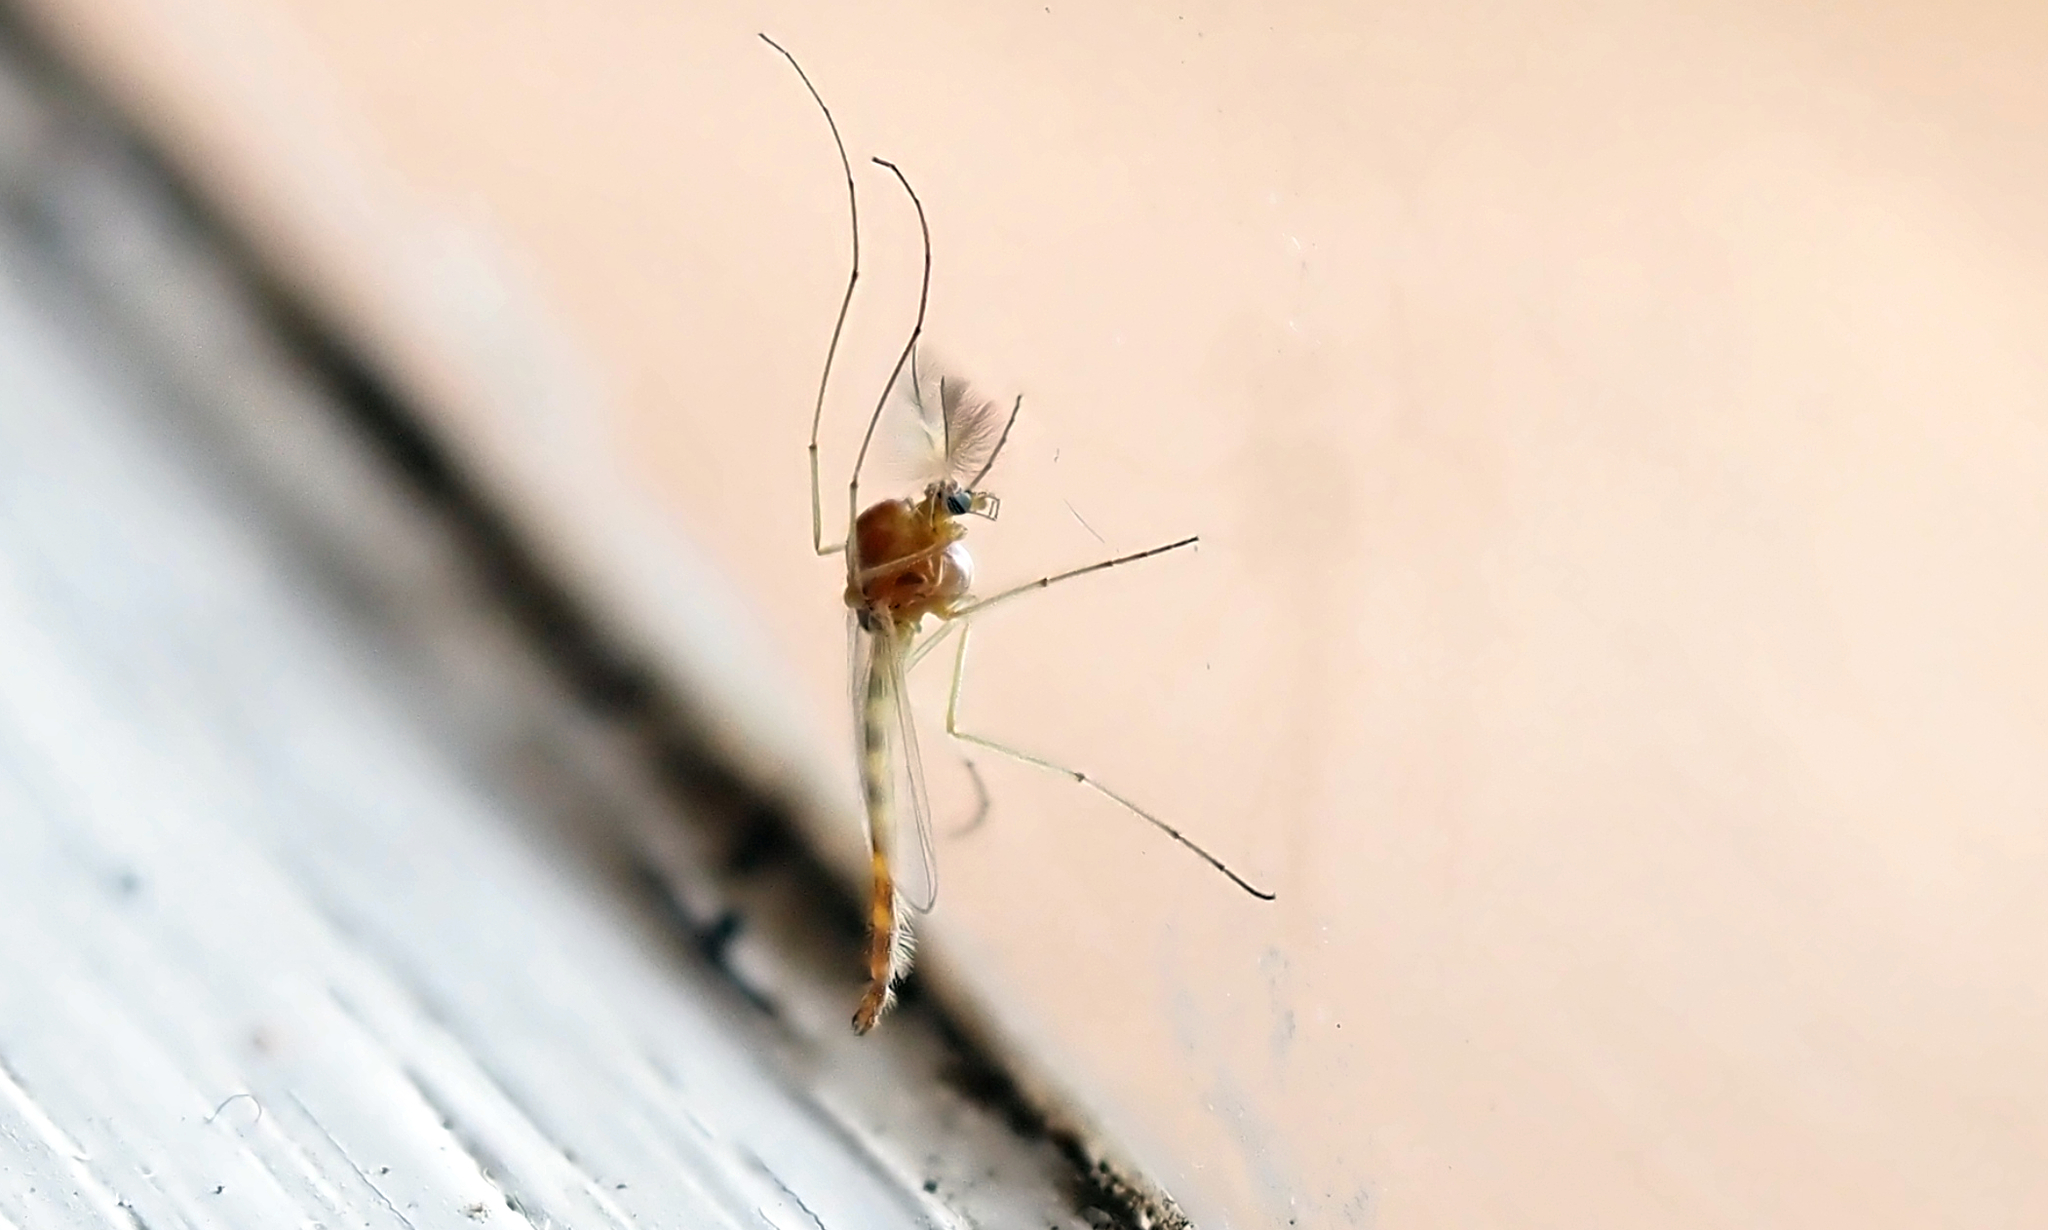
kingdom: Animalia
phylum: Arthropoda
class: Insecta
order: Diptera
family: Chironomidae
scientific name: Chironomidae
